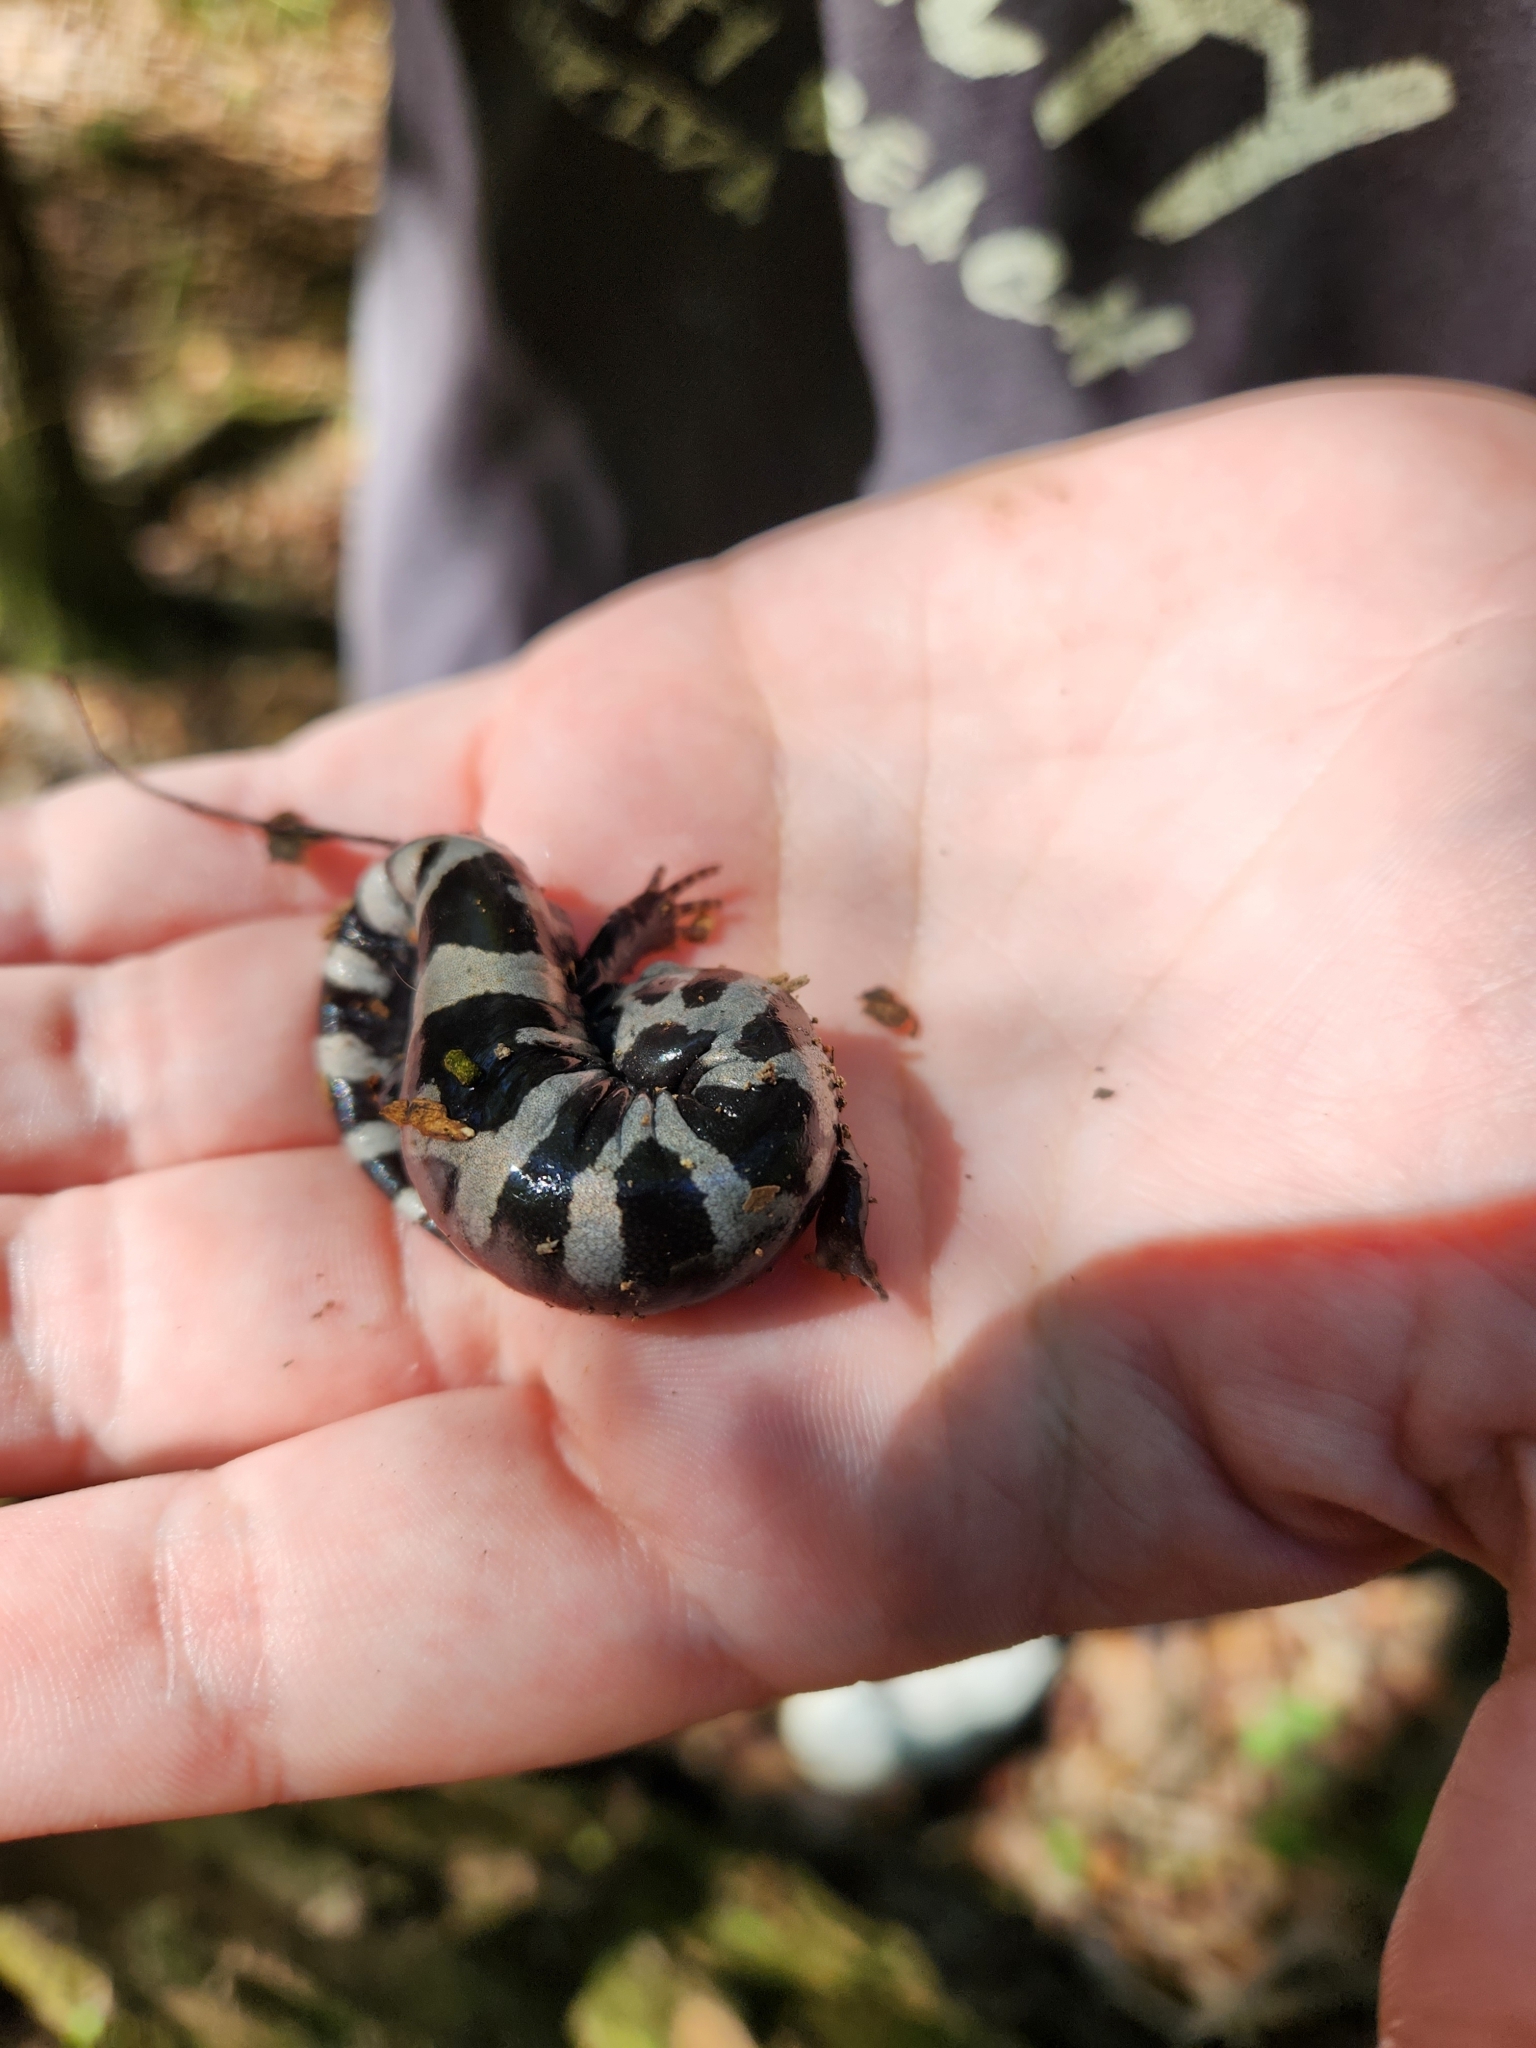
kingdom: Animalia
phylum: Chordata
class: Amphibia
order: Caudata
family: Ambystomatidae
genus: Ambystoma
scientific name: Ambystoma opacum
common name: Marbled salamander
